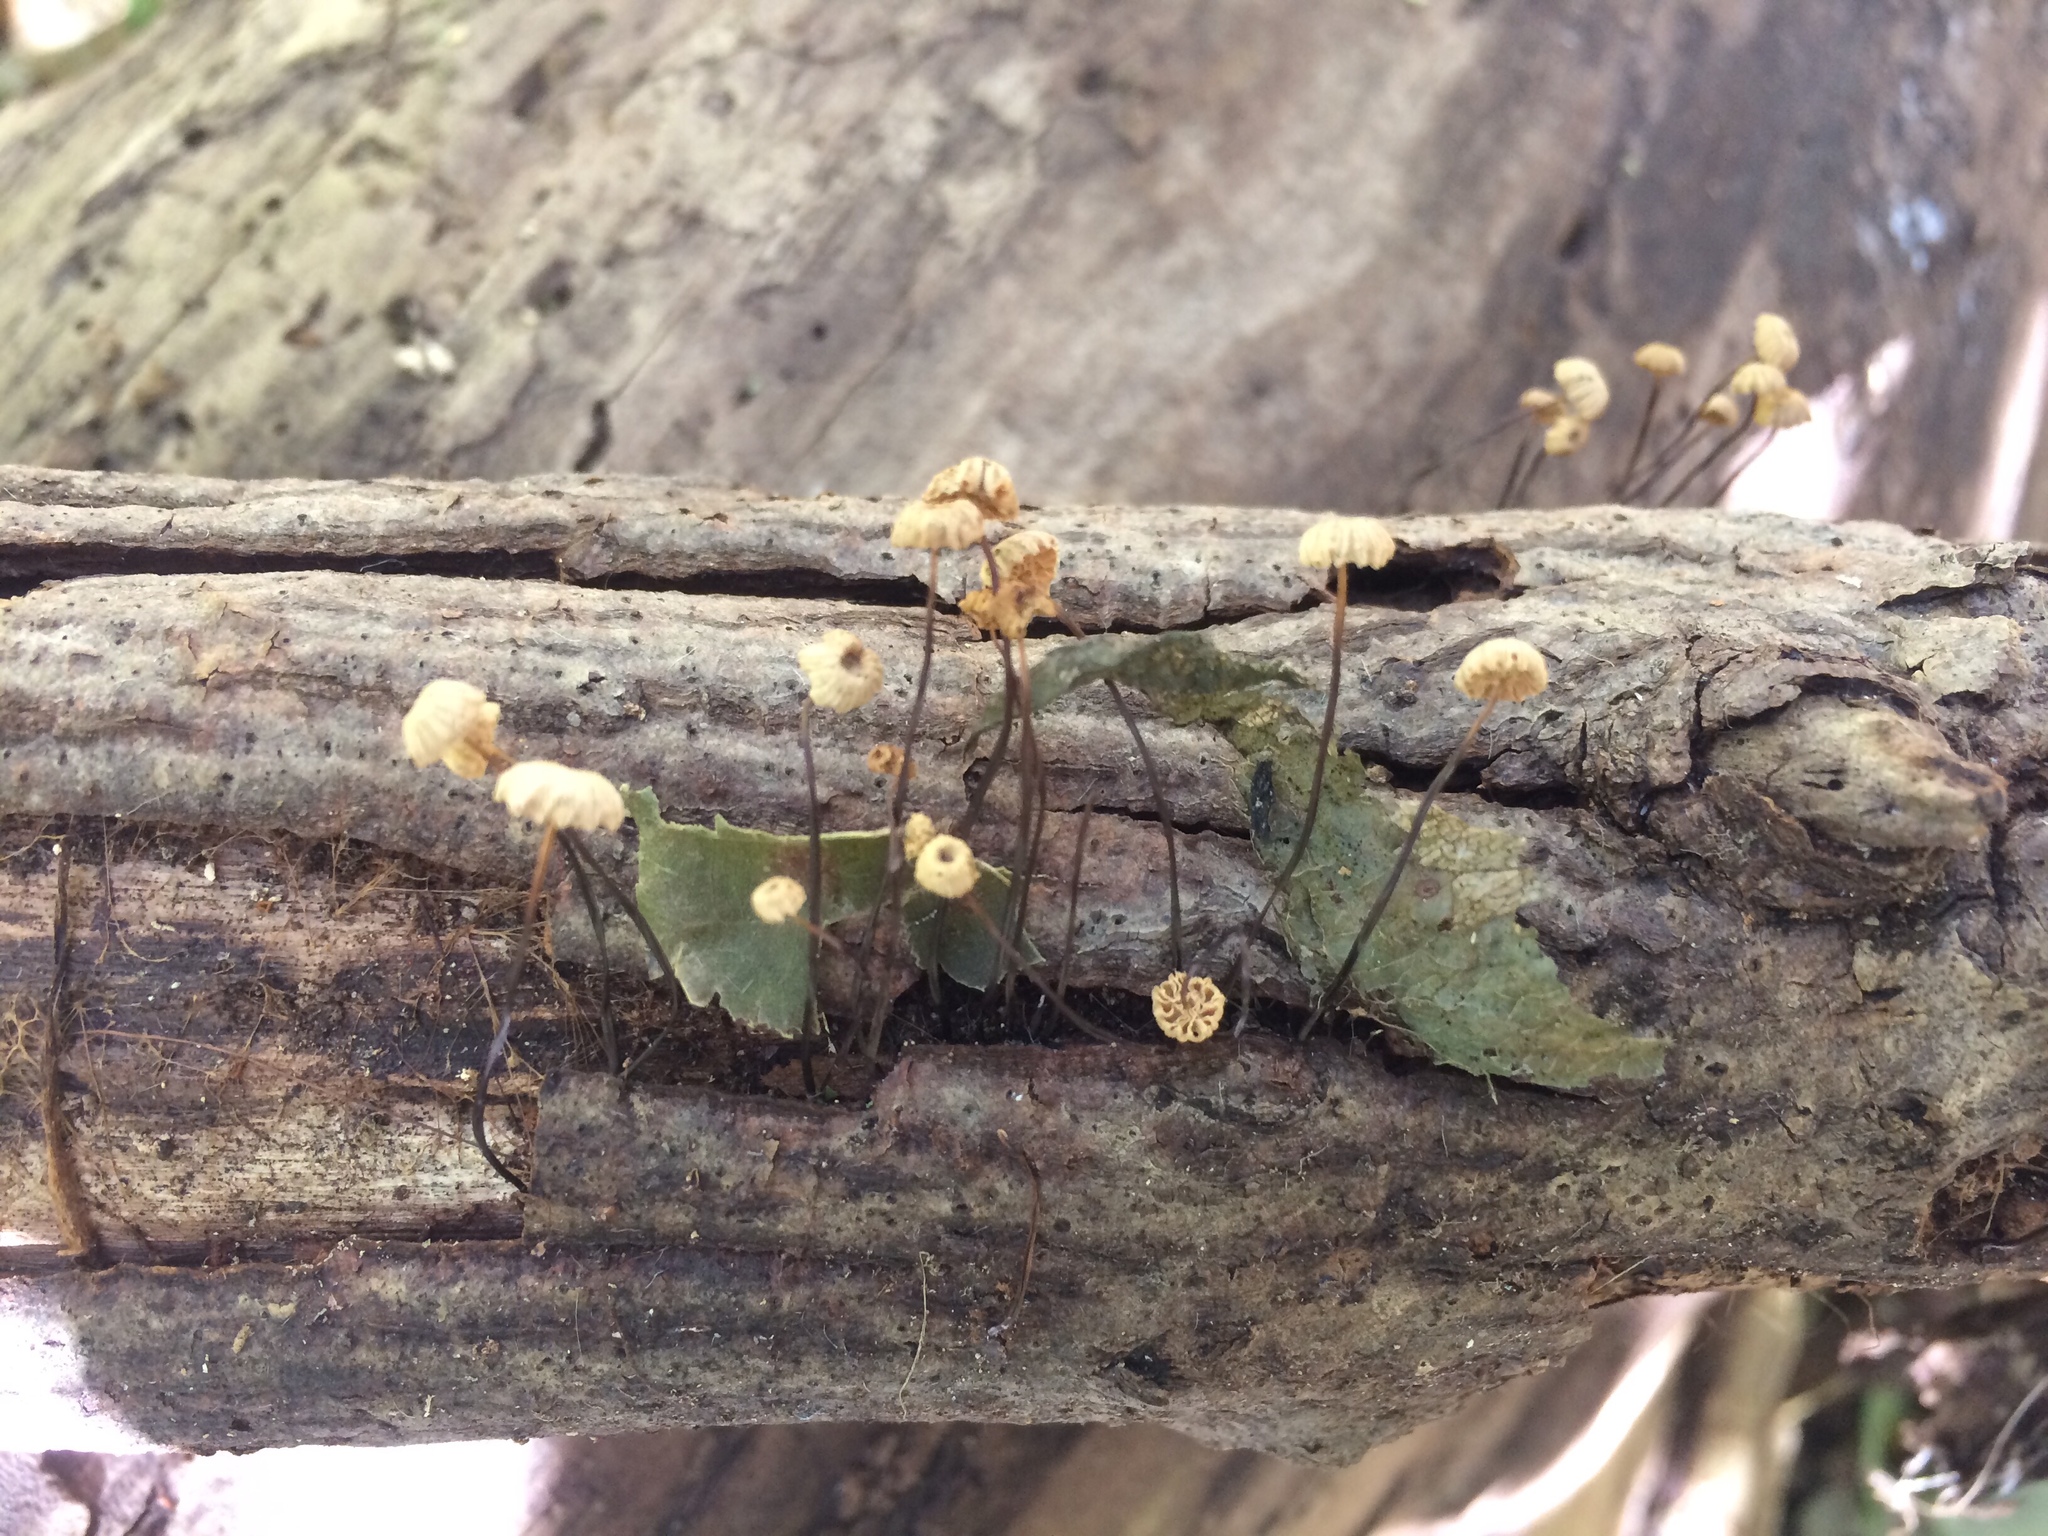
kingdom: Fungi
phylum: Basidiomycota
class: Agaricomycetes
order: Agaricales
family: Marasmiaceae
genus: Marasmius
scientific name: Marasmius rotula
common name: Collared parachute
